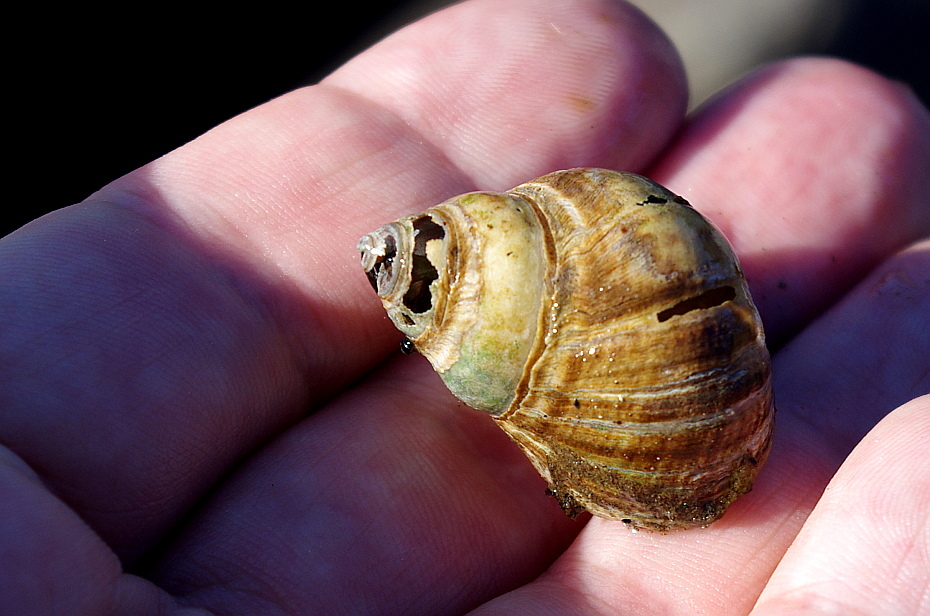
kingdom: Animalia
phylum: Mollusca
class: Gastropoda
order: Littorinimorpha
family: Littorinidae
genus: Littorina
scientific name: Littorina littorea
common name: Common periwinkle
